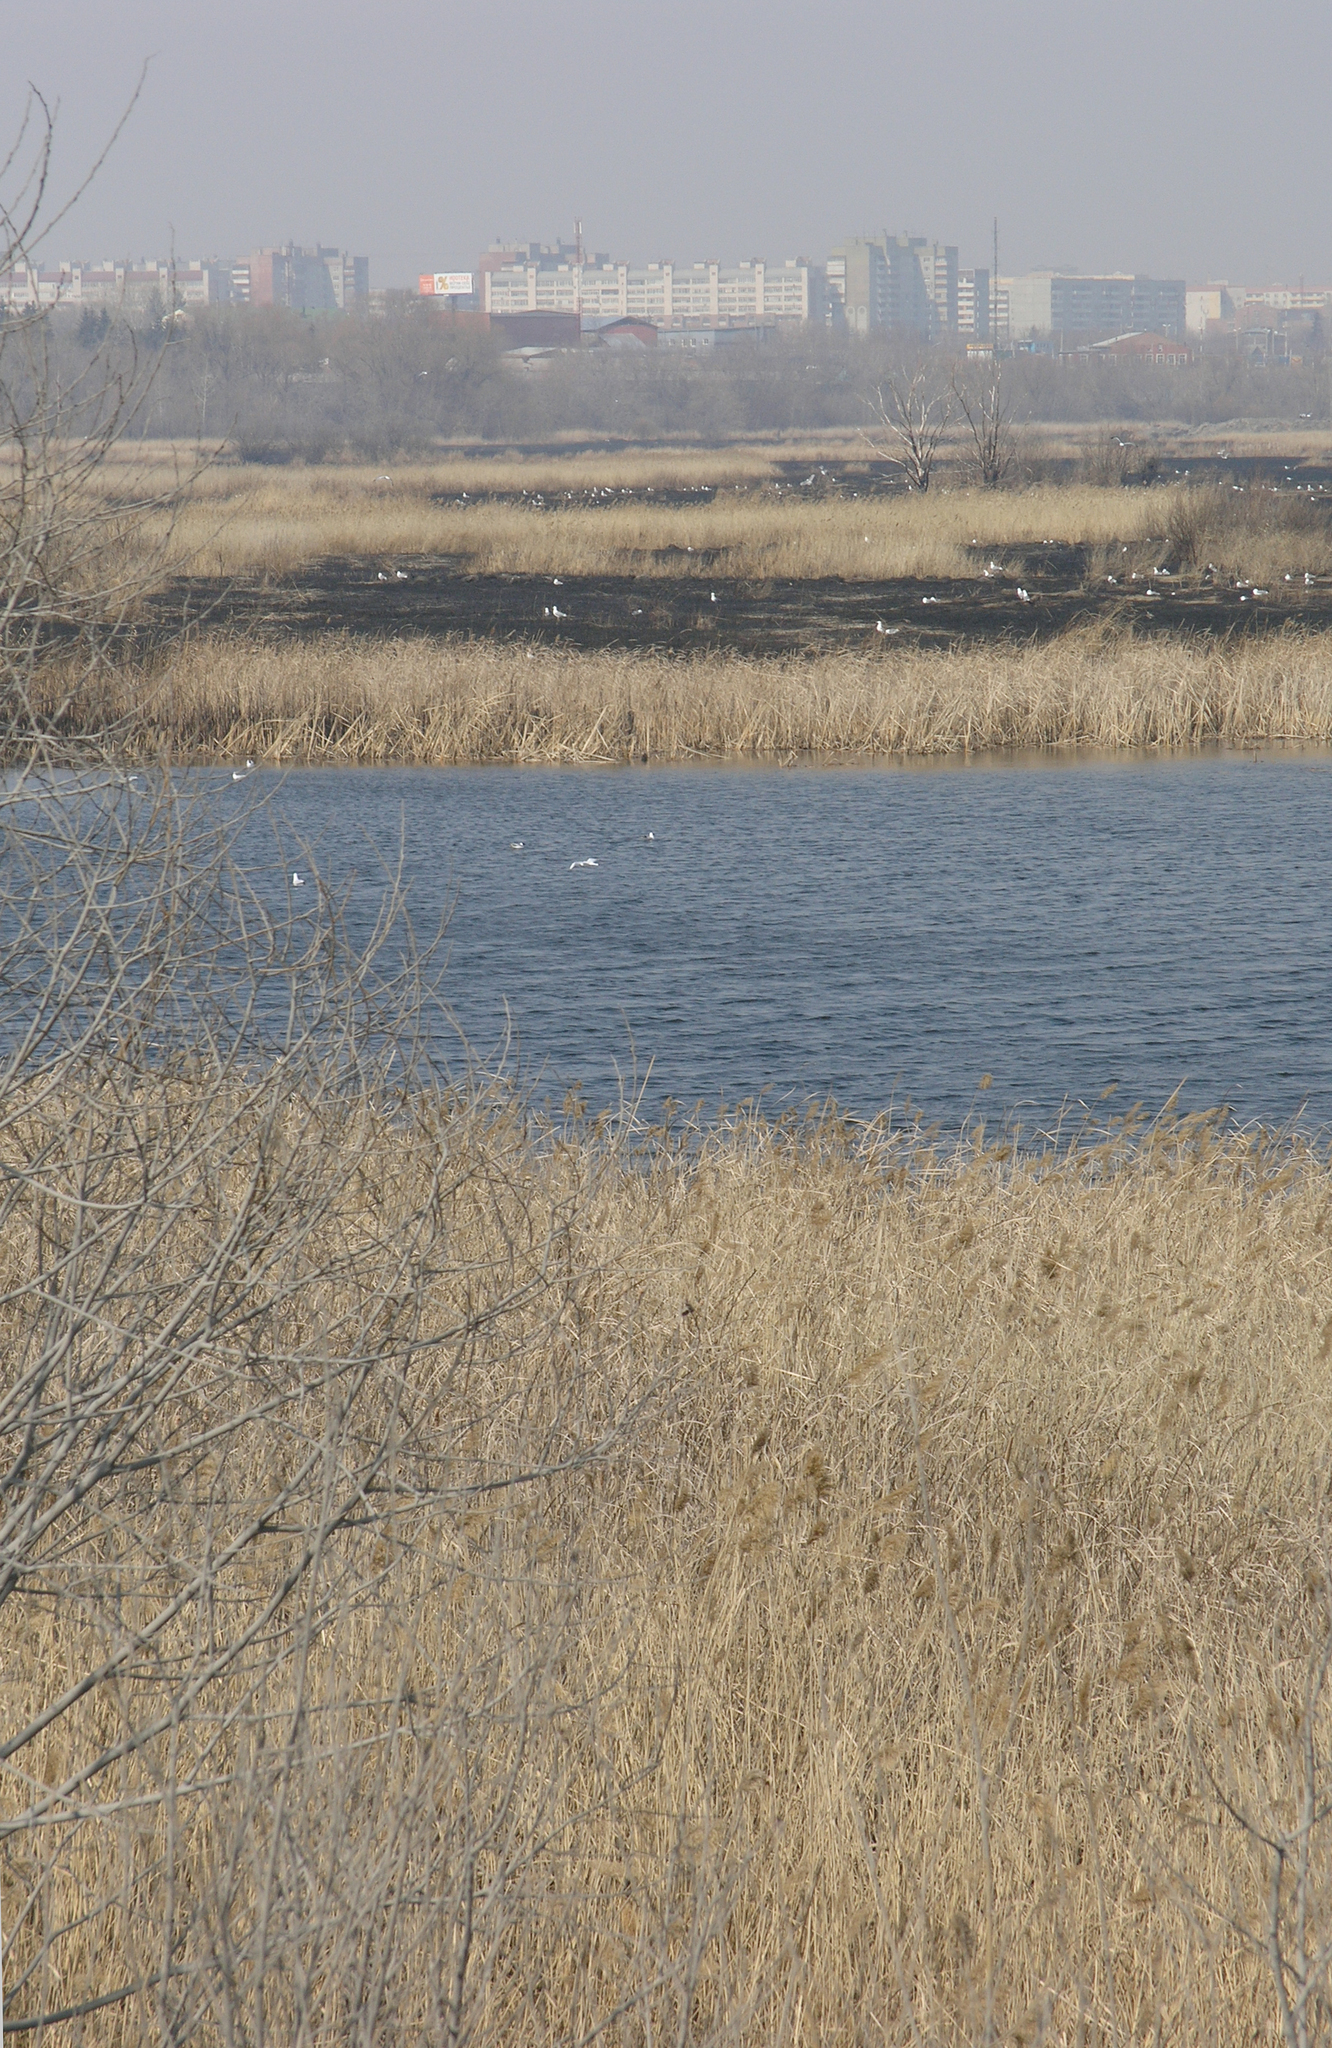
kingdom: Animalia
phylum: Chordata
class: Aves
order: Charadriiformes
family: Laridae
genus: Larus
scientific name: Larus fuscus
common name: Lesser black-backed gull
